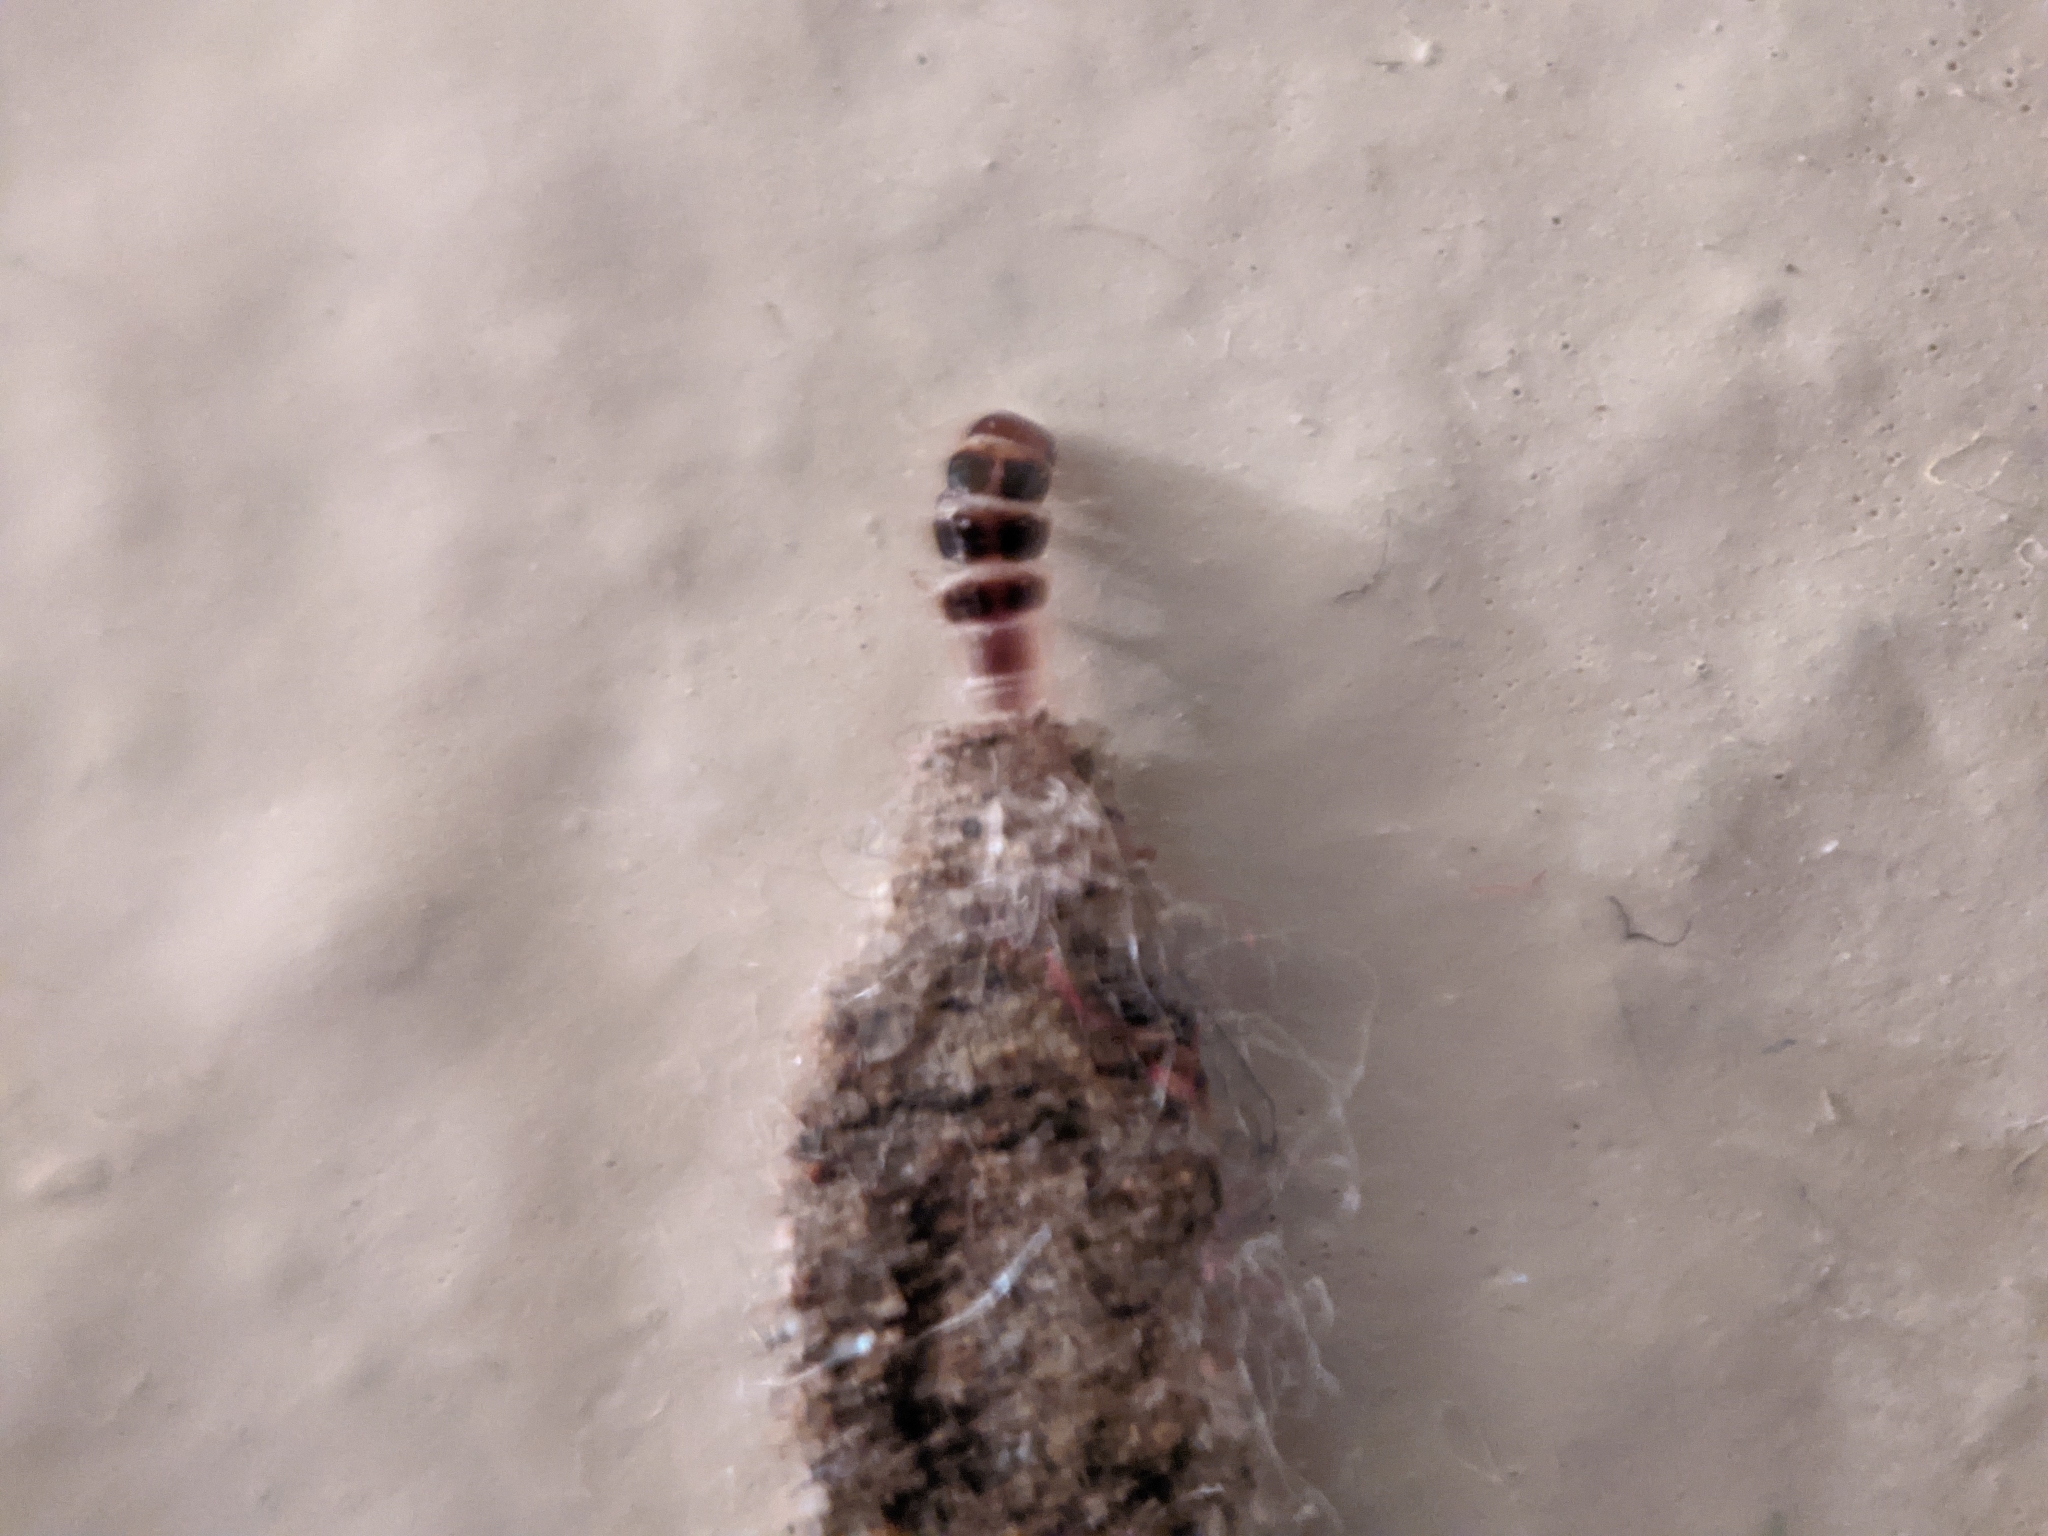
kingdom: Animalia
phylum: Arthropoda
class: Insecta
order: Lepidoptera
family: Tineidae
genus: Phereoeca
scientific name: Phereoeca uterella
